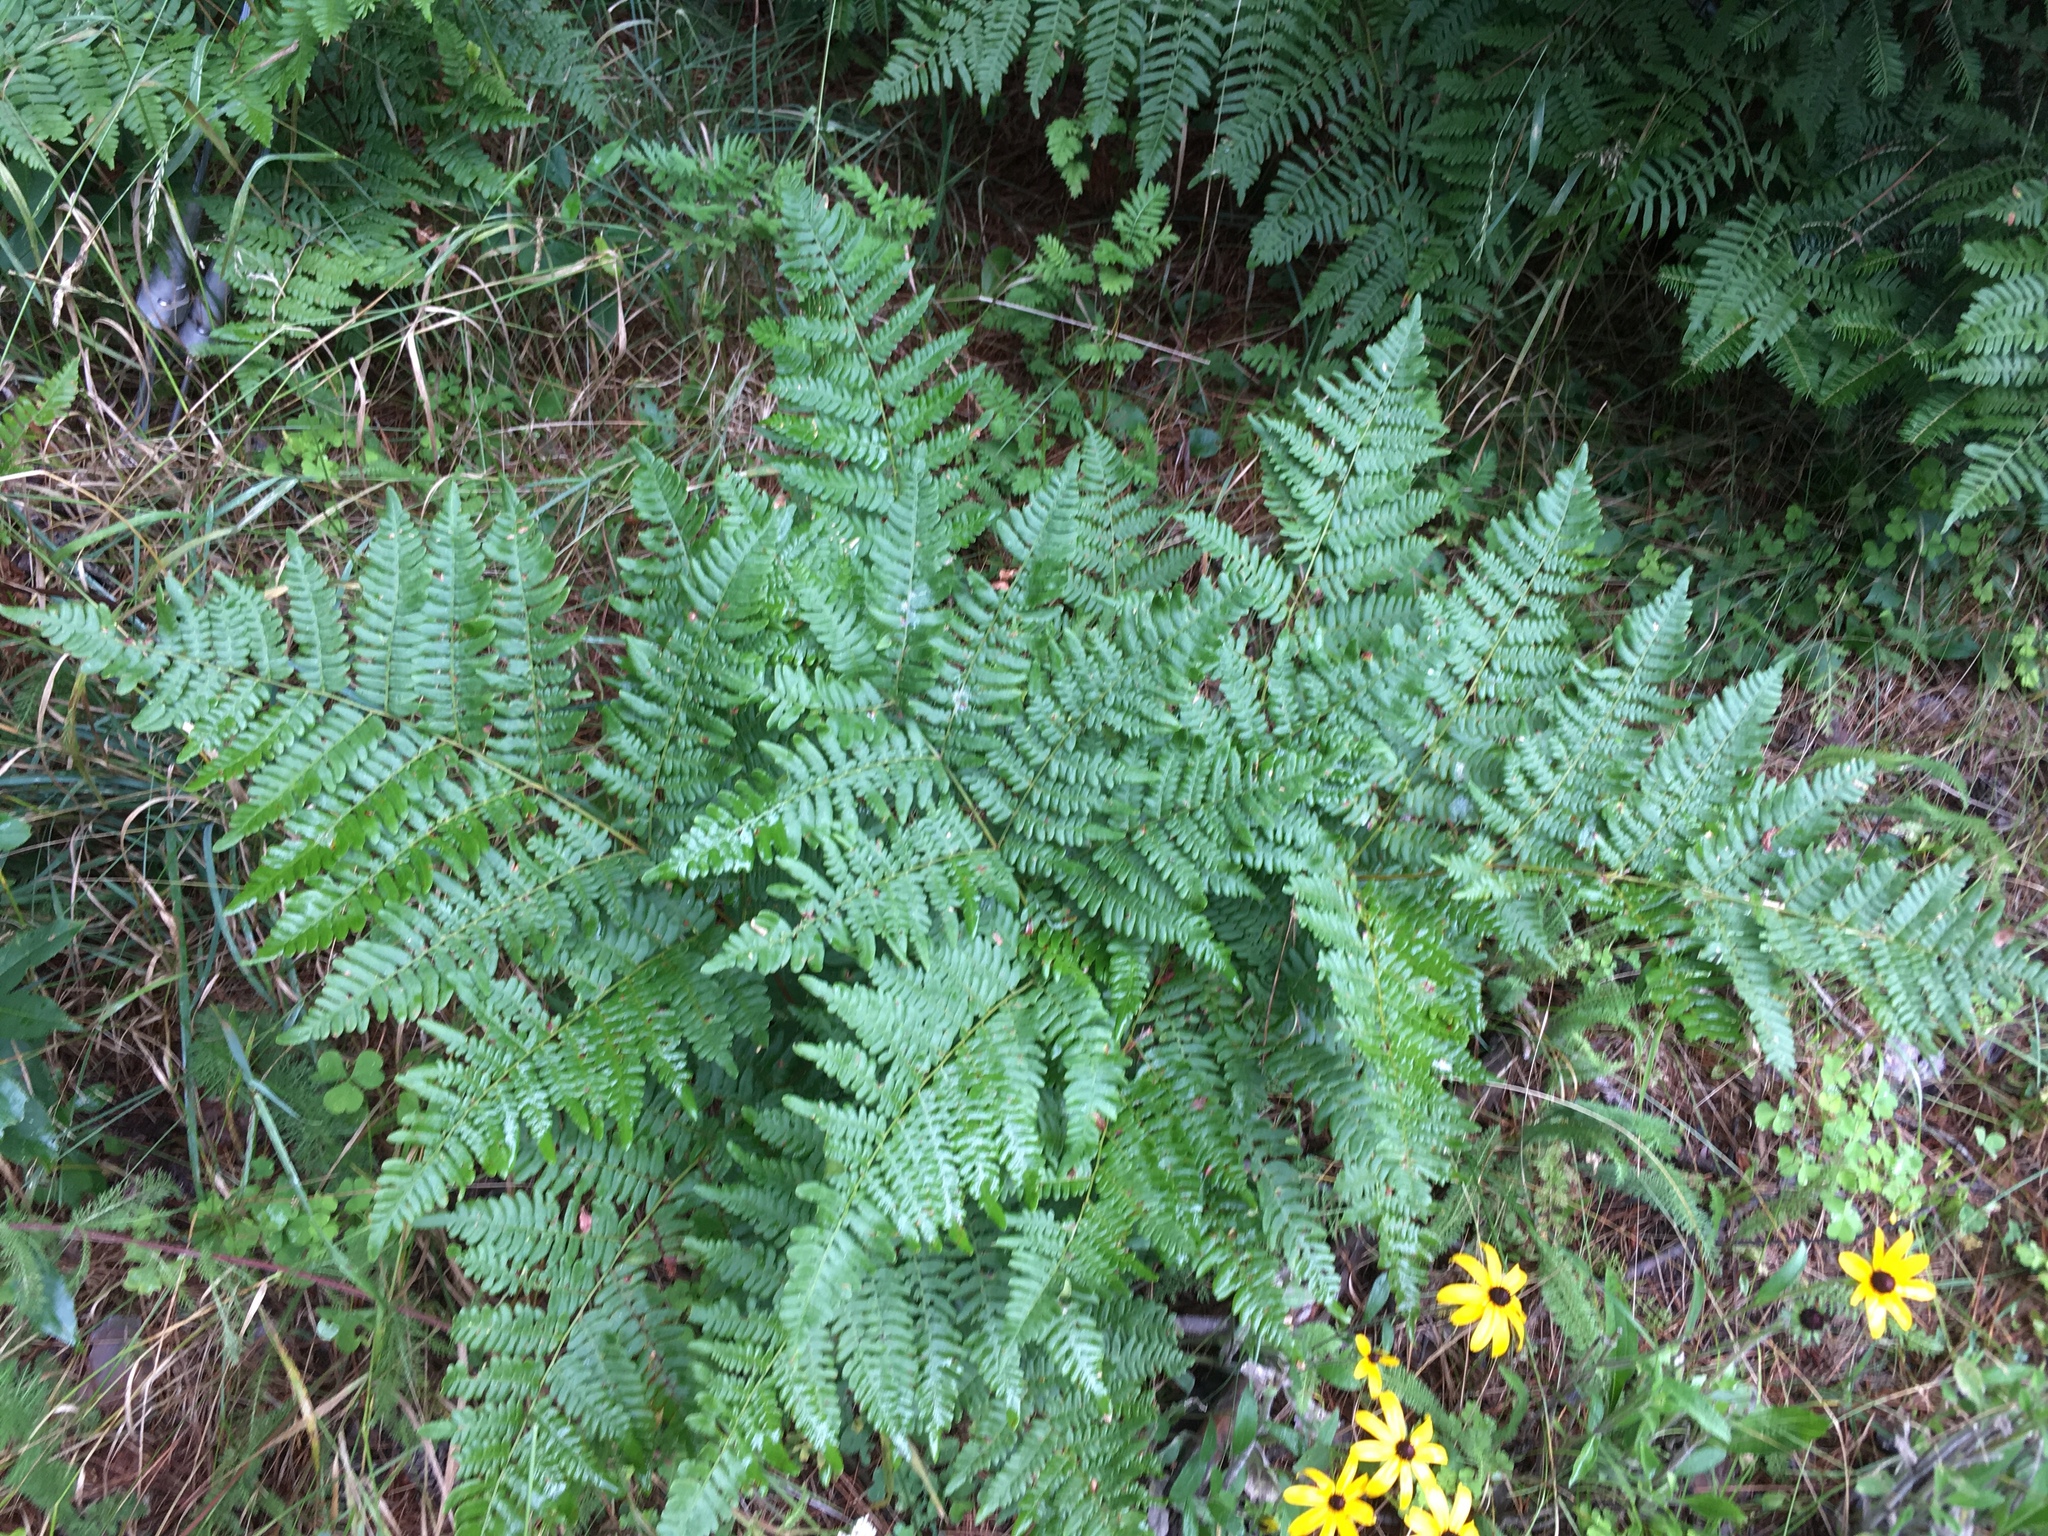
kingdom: Plantae
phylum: Tracheophyta
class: Polypodiopsida
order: Polypodiales
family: Dennstaedtiaceae
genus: Pteridium
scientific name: Pteridium aquilinum
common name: Bracken
